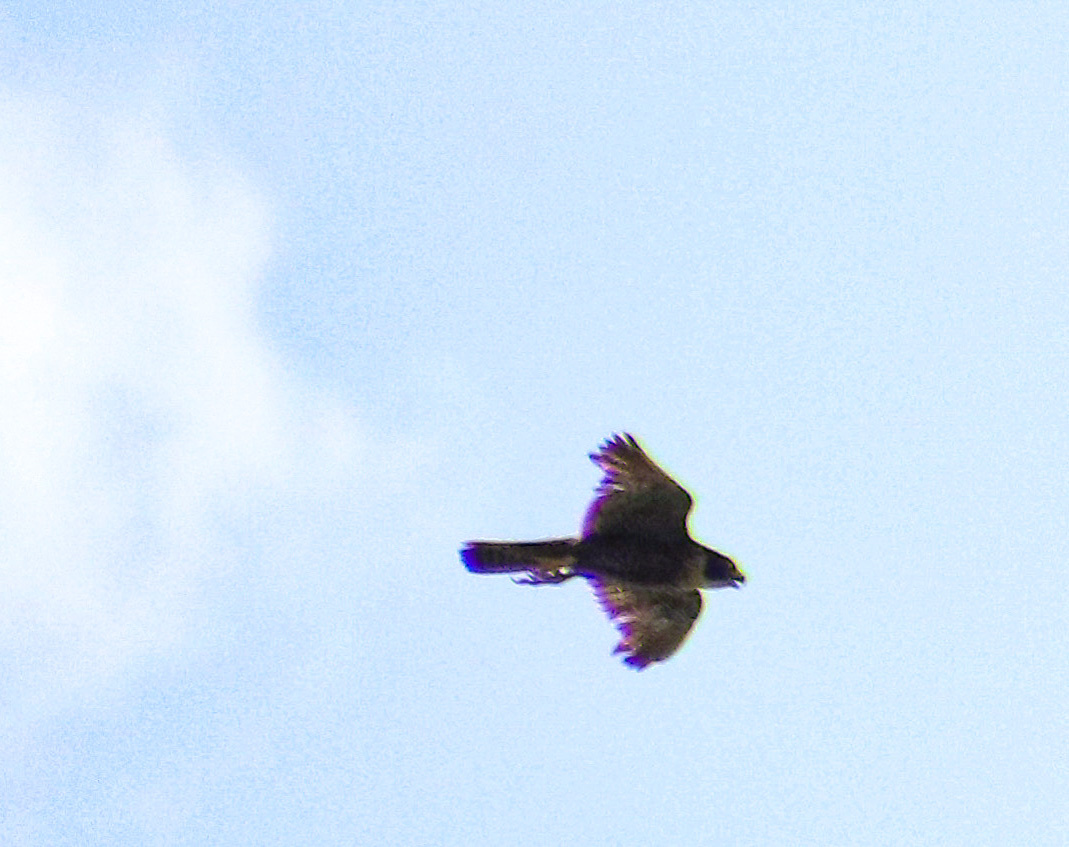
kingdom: Animalia
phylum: Chordata
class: Aves
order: Falconiformes
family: Falconidae
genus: Falco
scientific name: Falco peregrinus
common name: Peregrine falcon
